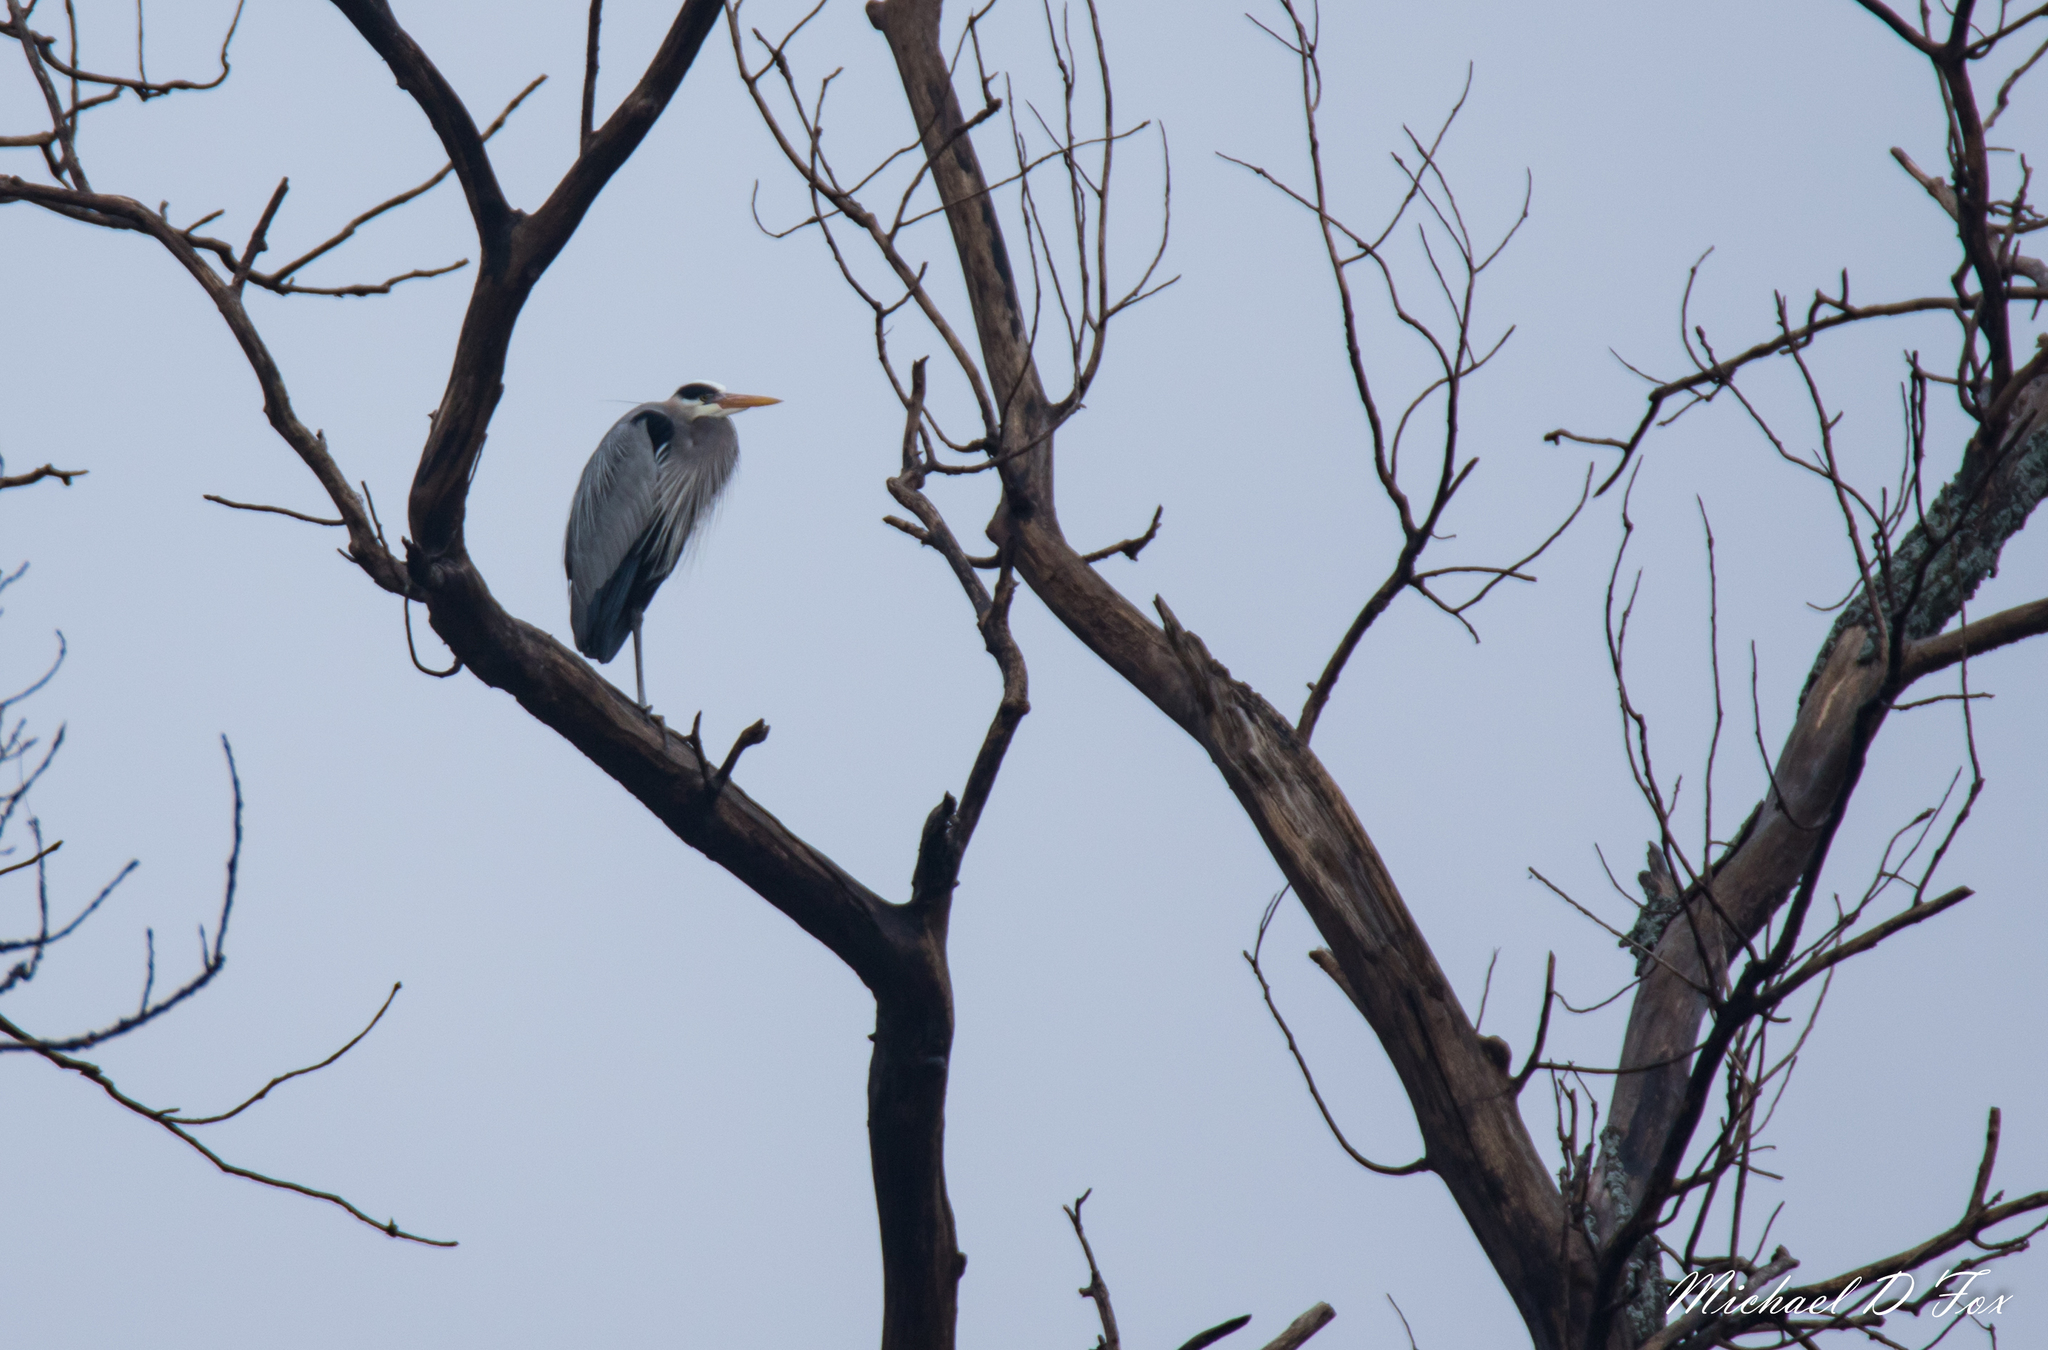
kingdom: Animalia
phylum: Chordata
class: Aves
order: Pelecaniformes
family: Ardeidae
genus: Ardea
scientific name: Ardea herodias
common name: Great blue heron
